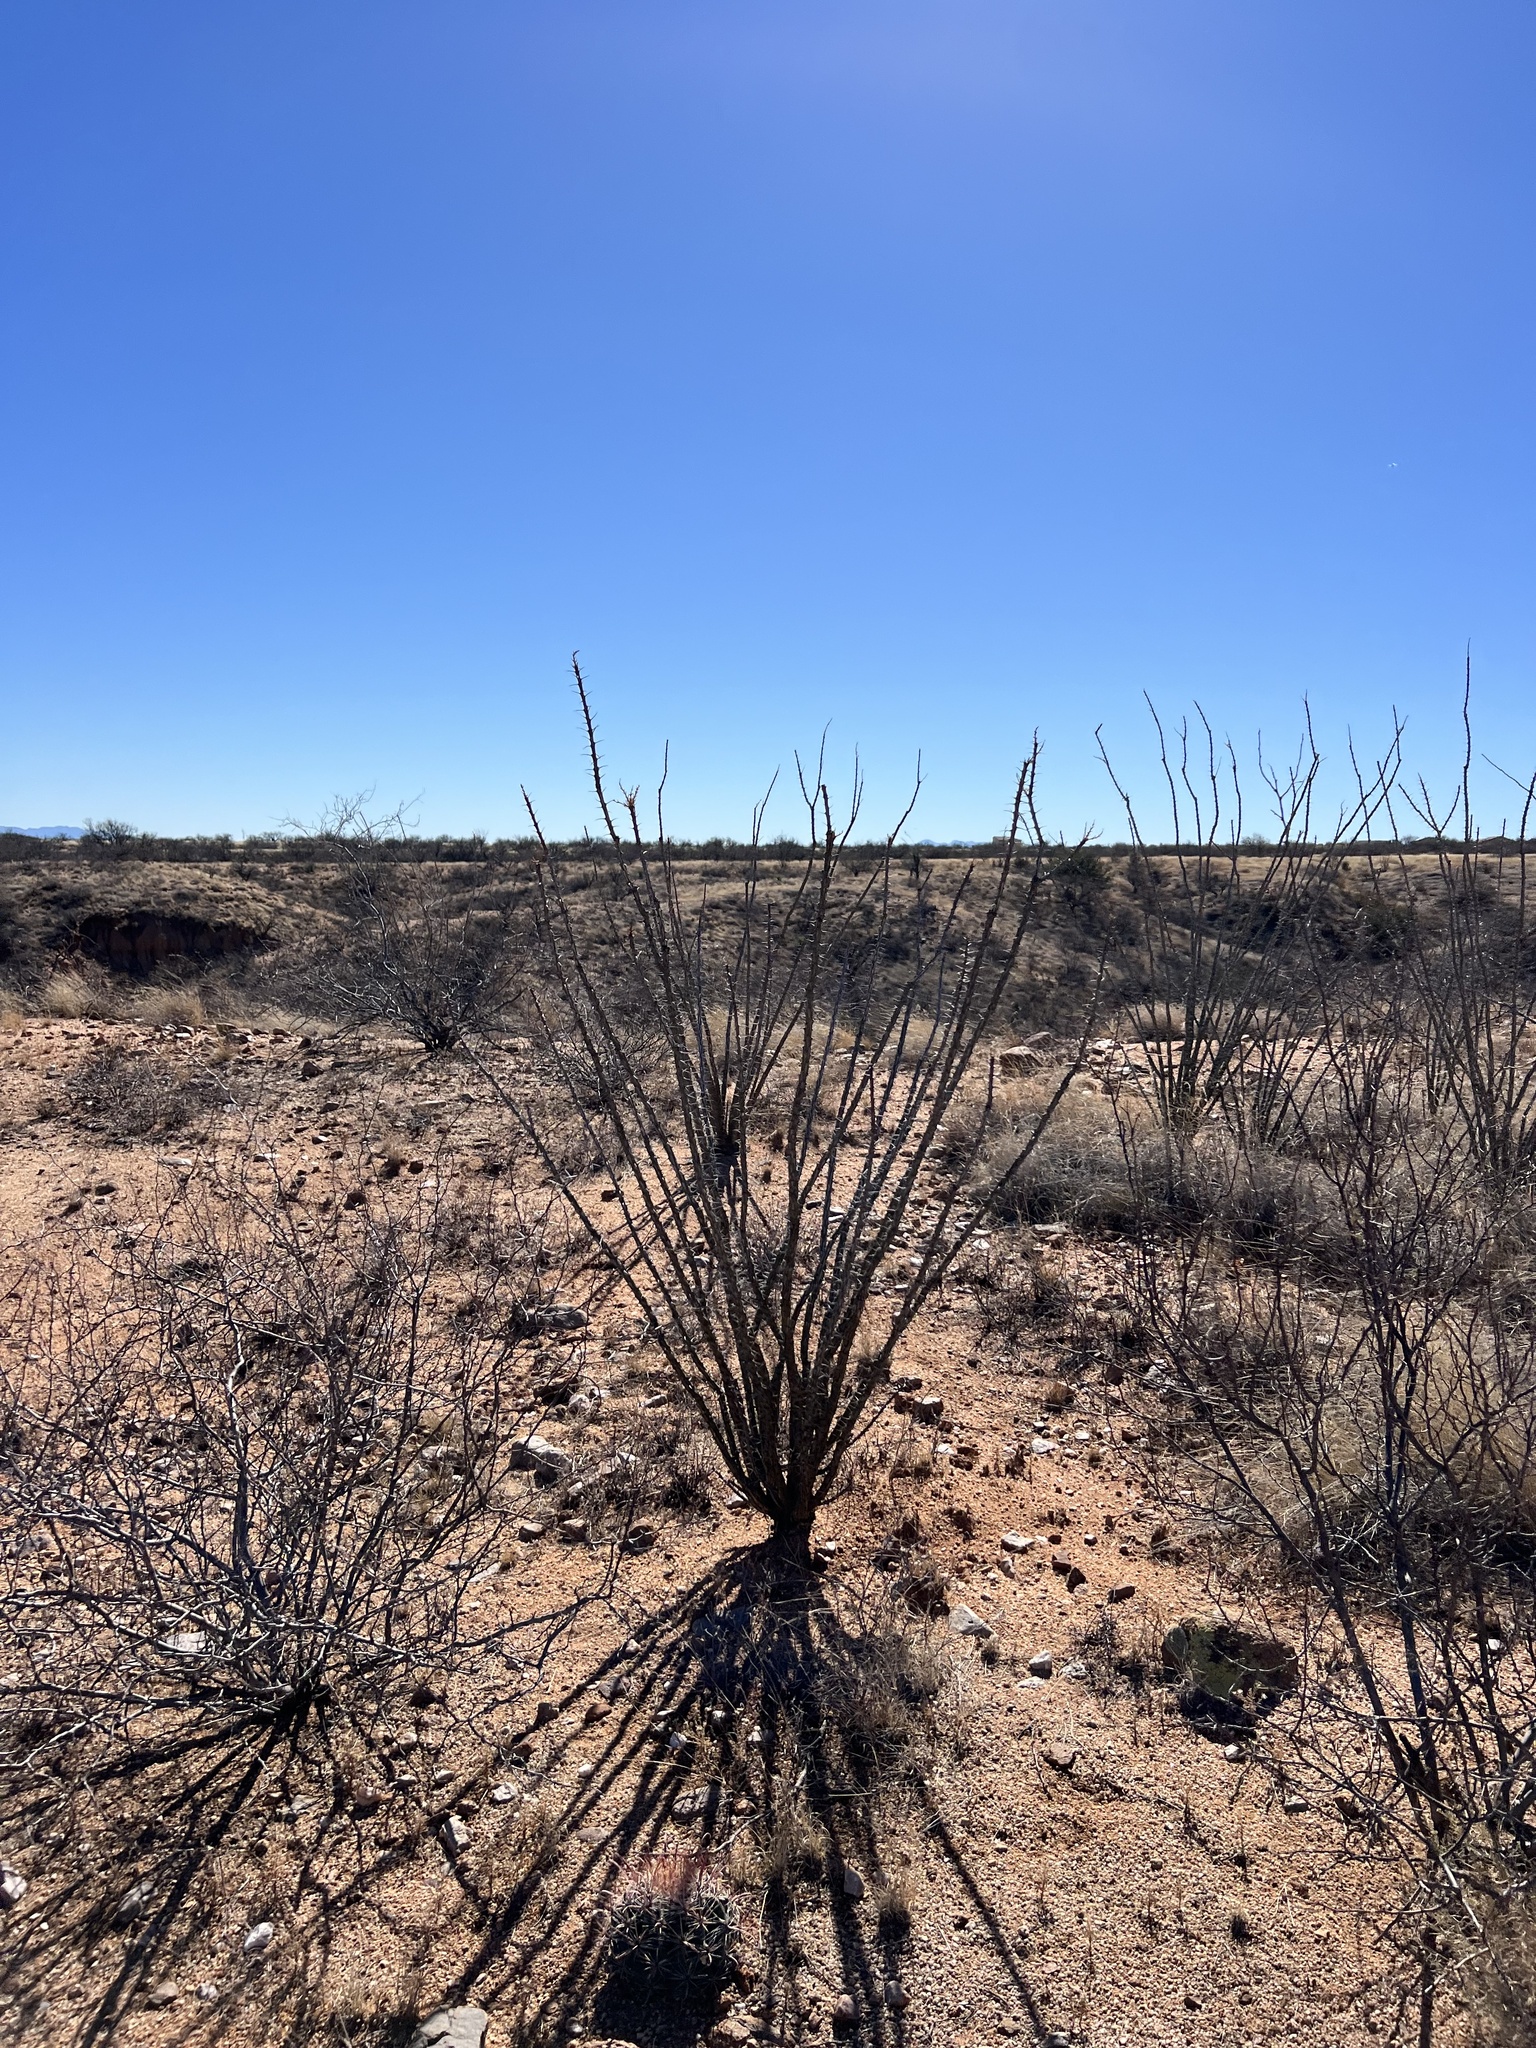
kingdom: Plantae
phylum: Tracheophyta
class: Magnoliopsida
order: Ericales
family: Fouquieriaceae
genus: Fouquieria
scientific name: Fouquieria splendens
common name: Vine-cactus
